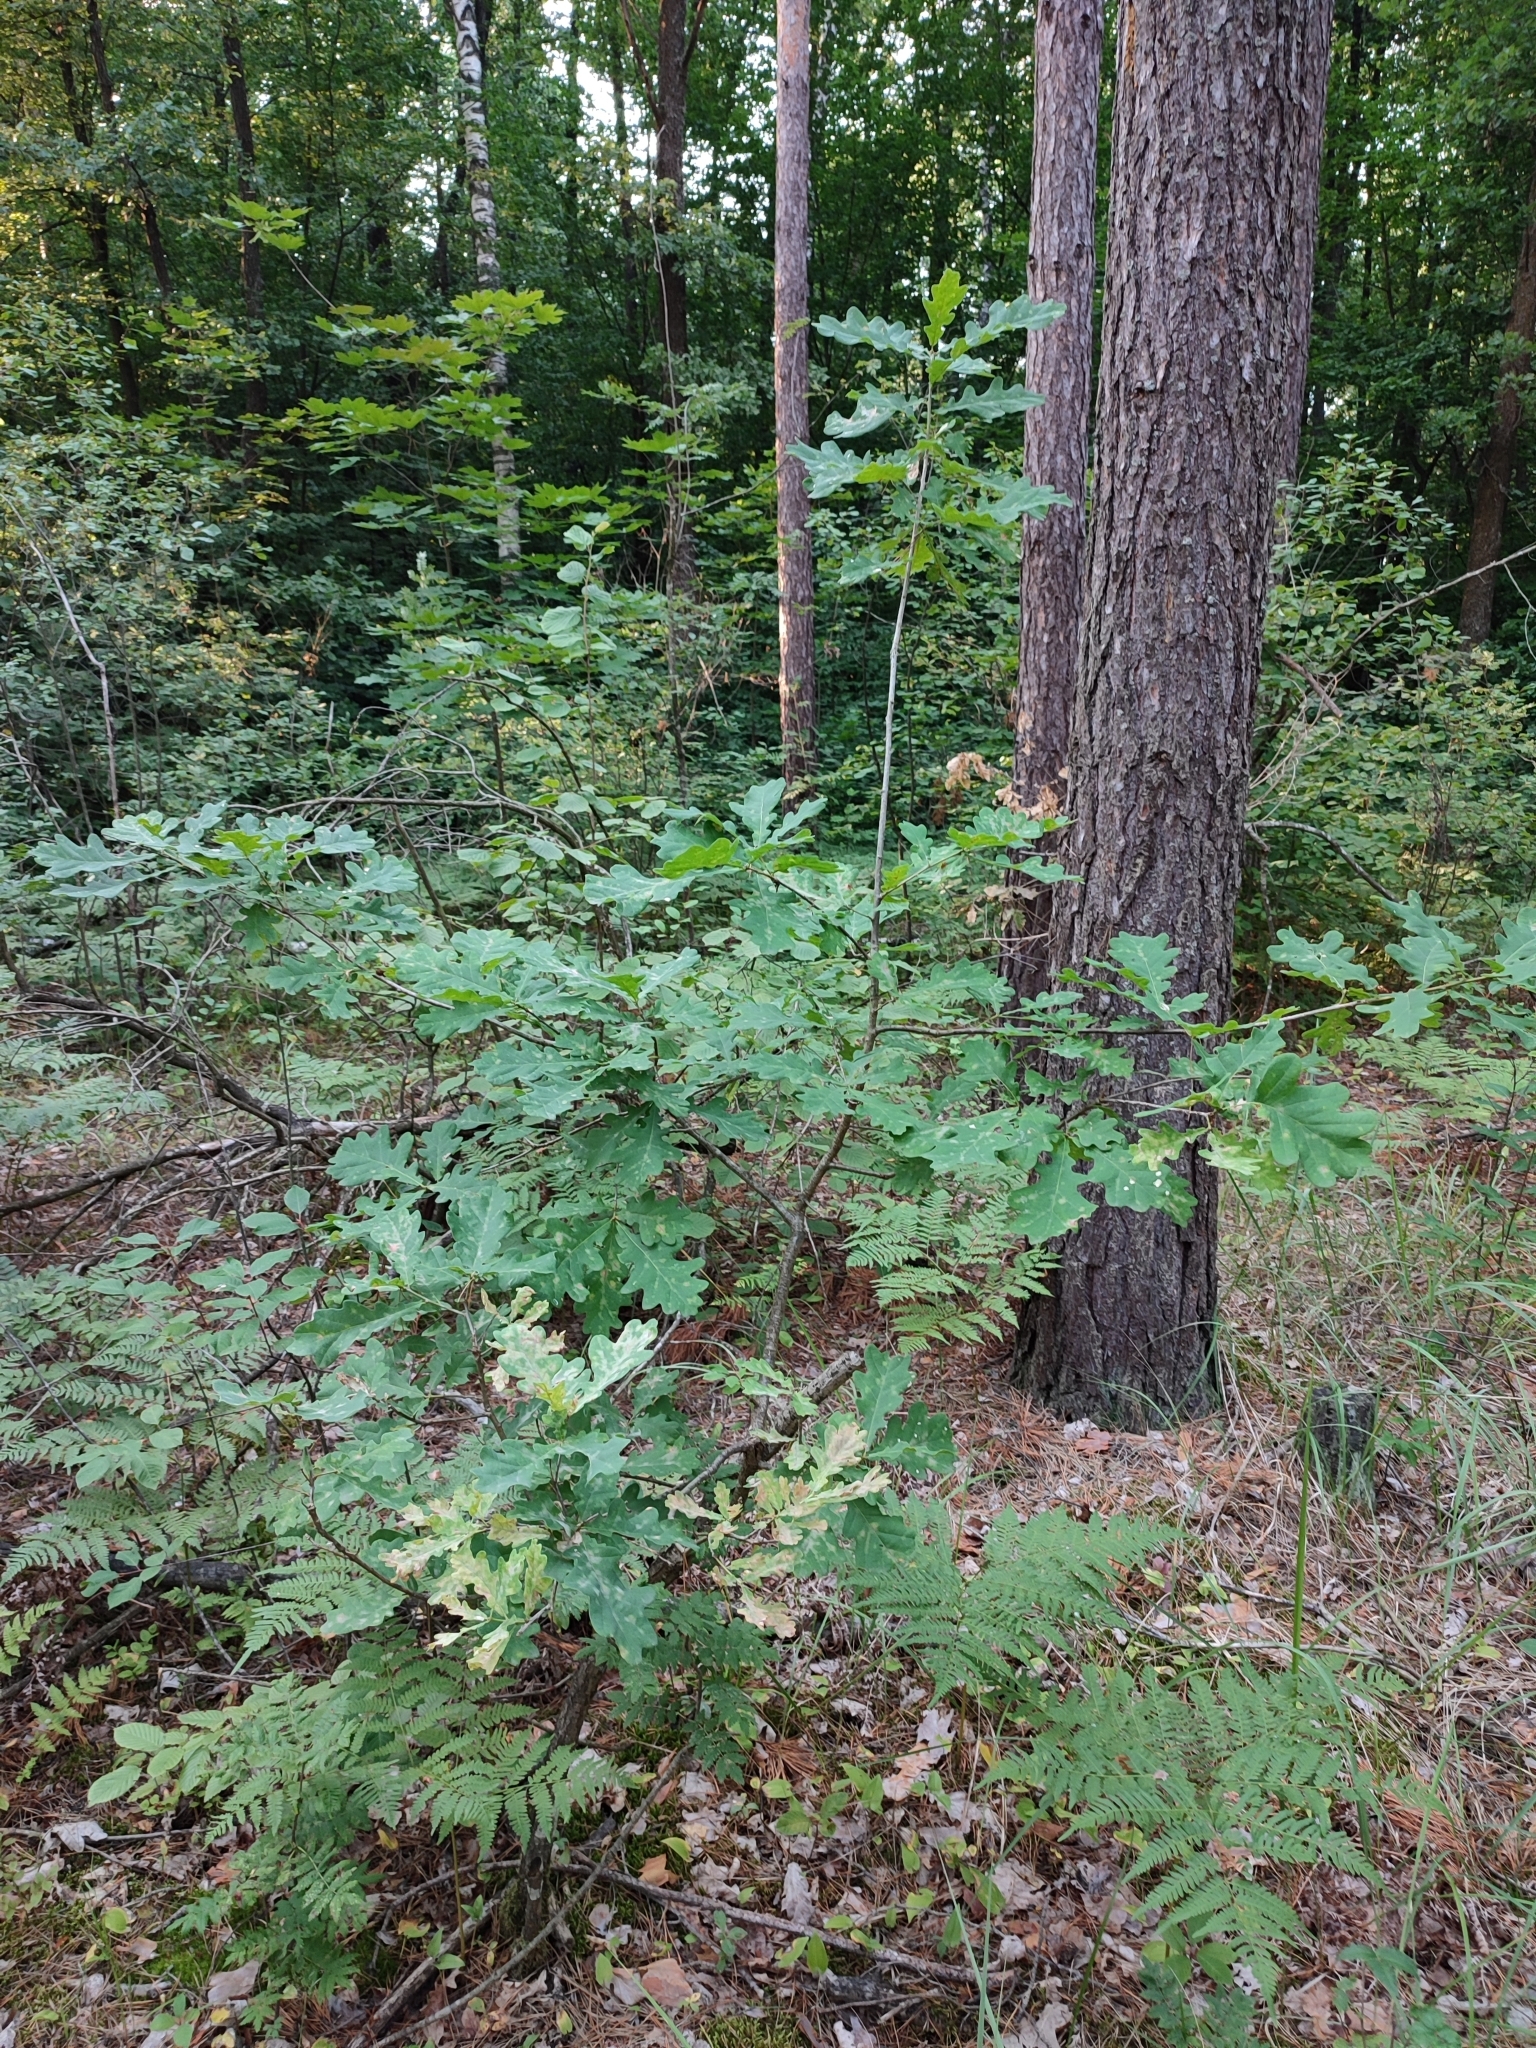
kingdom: Plantae
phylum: Tracheophyta
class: Magnoliopsida
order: Fagales
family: Fagaceae
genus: Quercus
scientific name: Quercus robur
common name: Pedunculate oak
